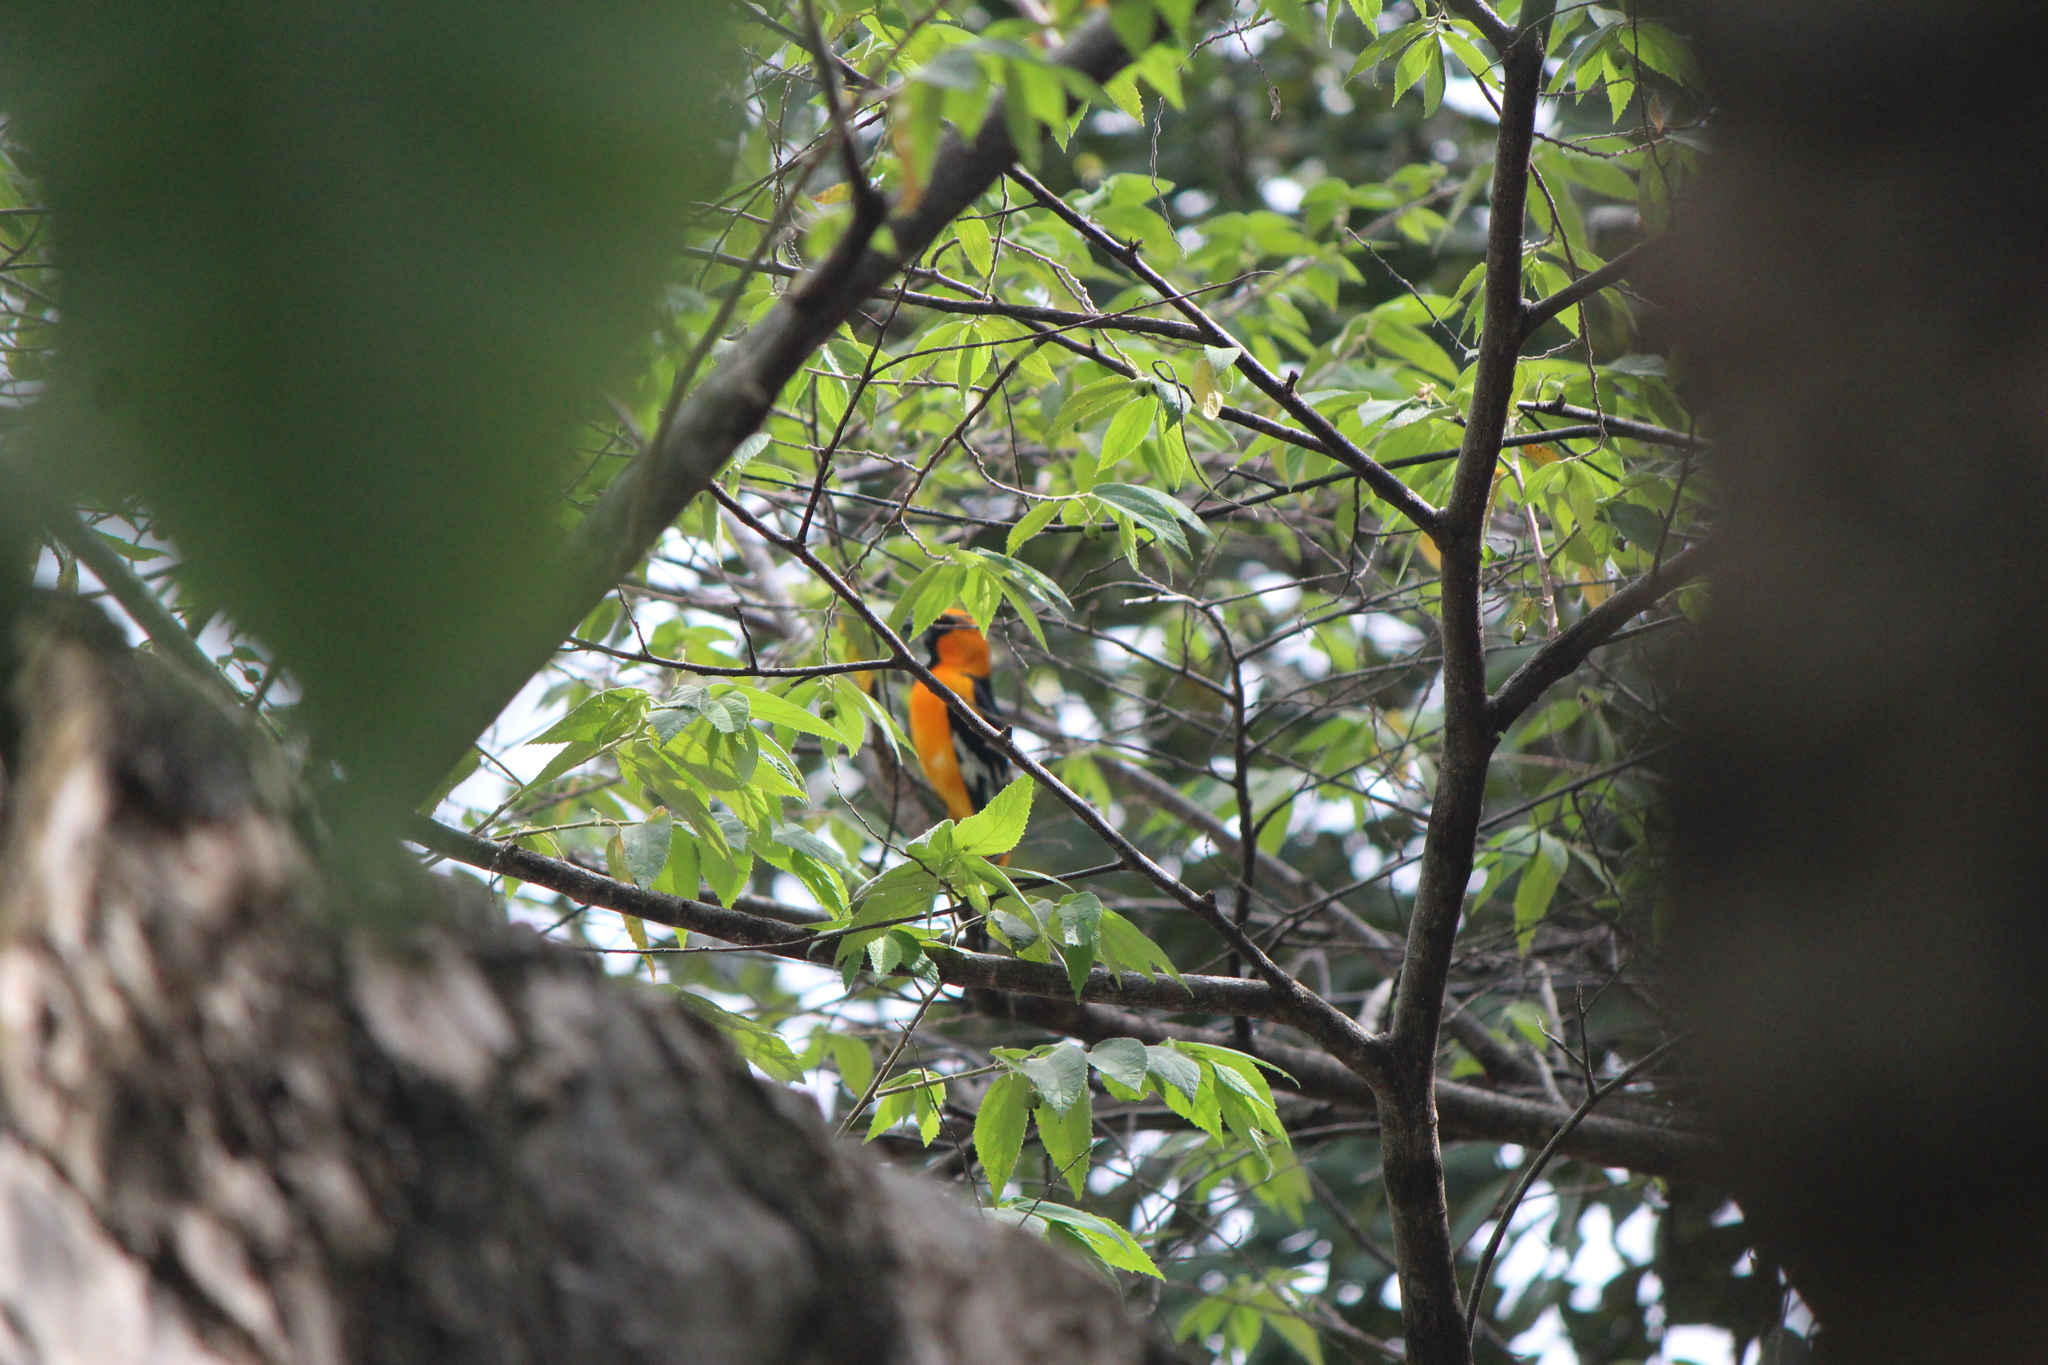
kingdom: Animalia
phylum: Chordata
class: Aves
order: Passeriformes
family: Icteridae
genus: Icterus
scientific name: Icterus gularis
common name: Altamira oriole
